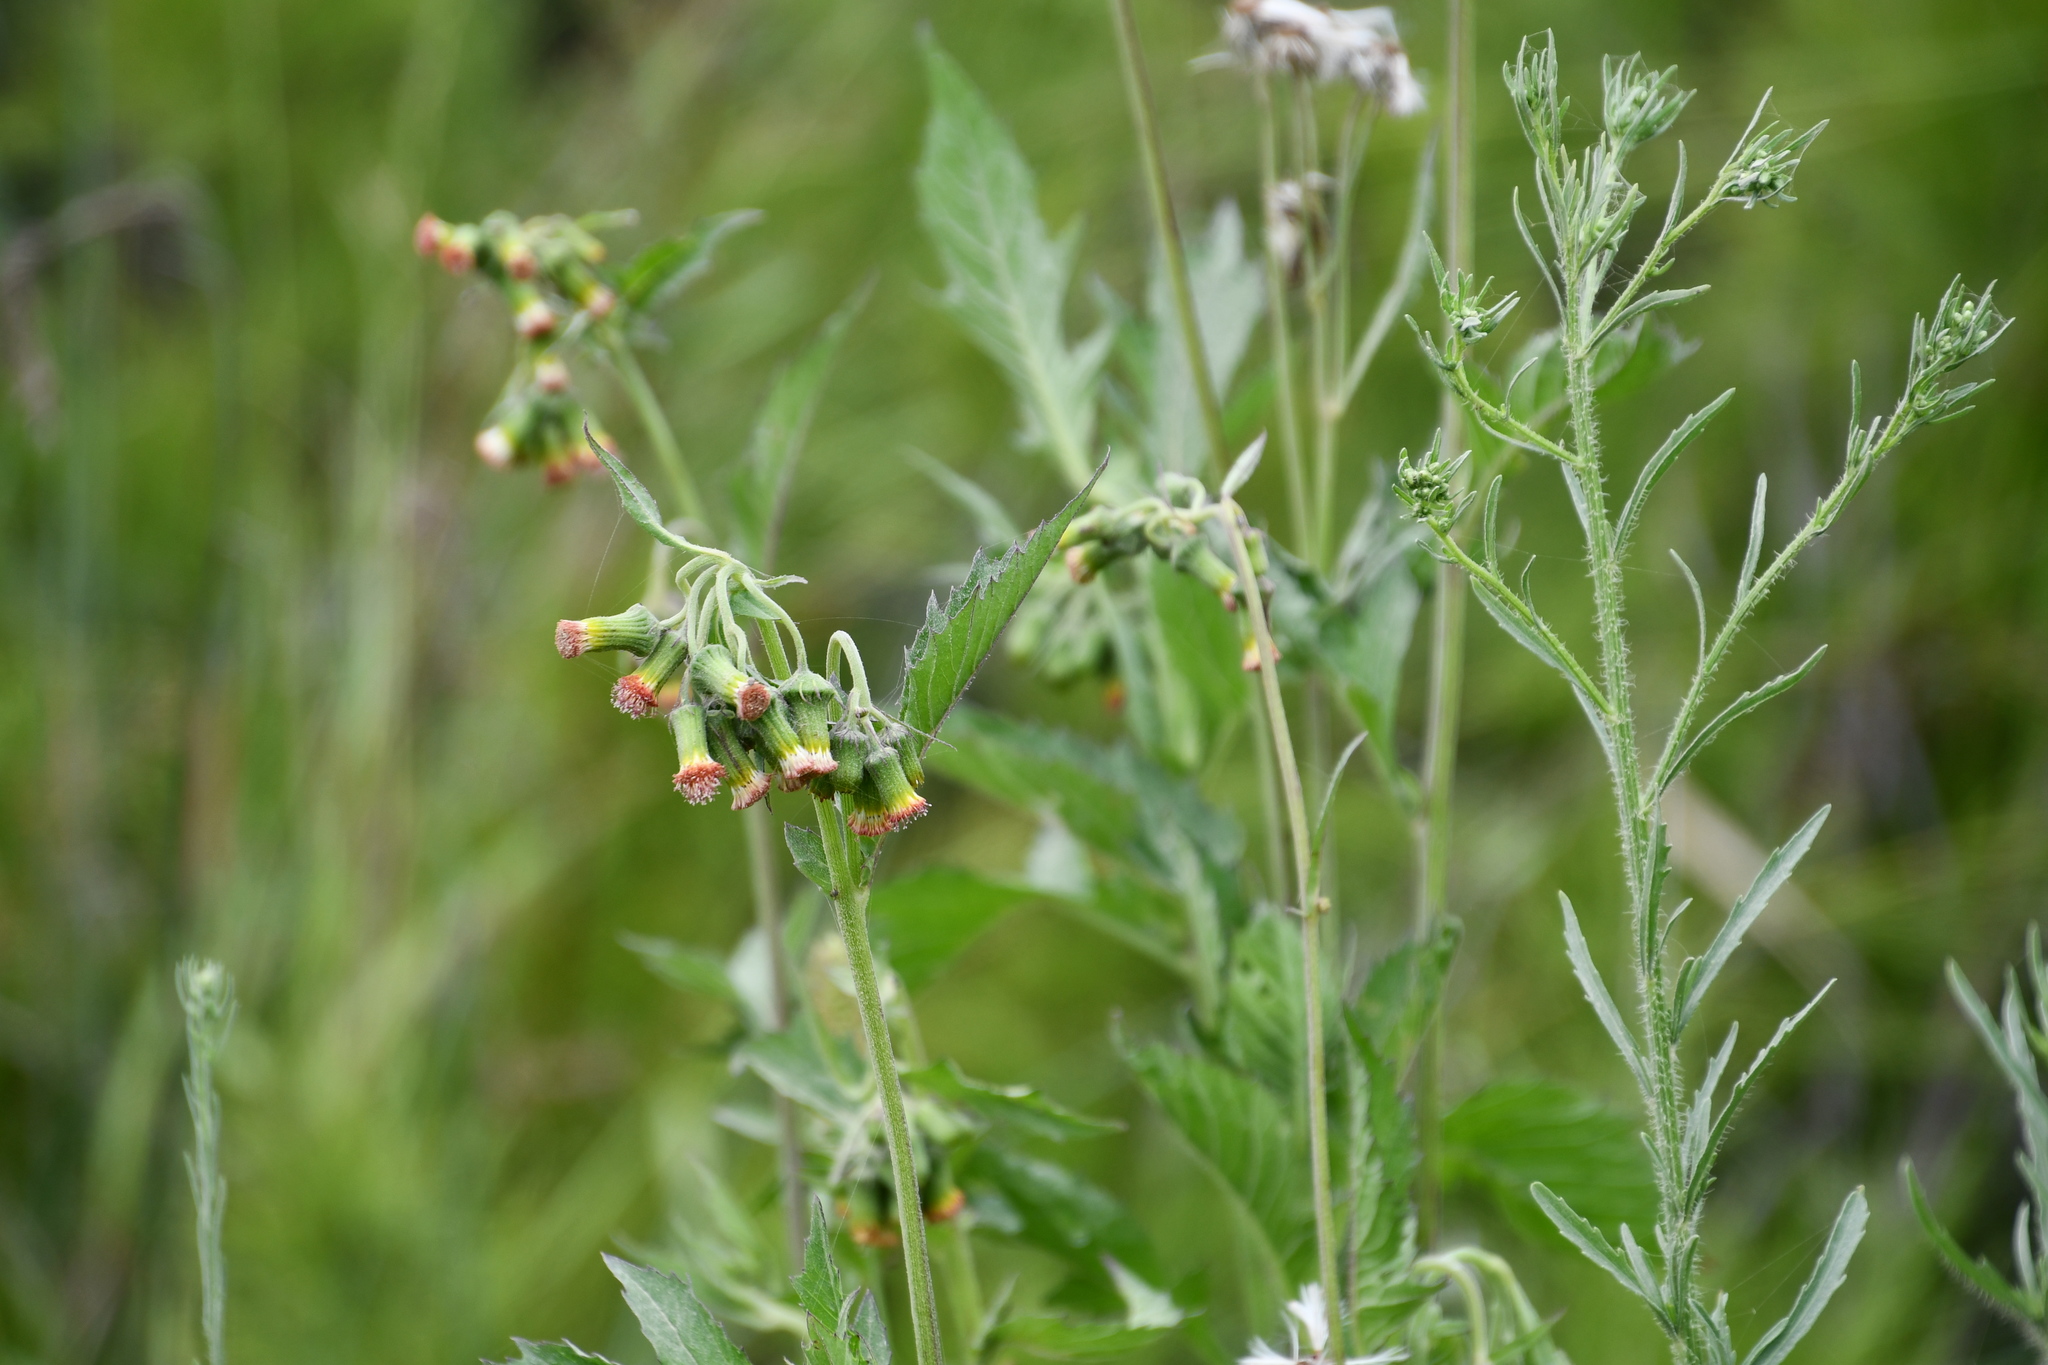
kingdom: Plantae
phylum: Tracheophyta
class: Magnoliopsida
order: Asterales
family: Asteraceae
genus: Crassocephalum
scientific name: Crassocephalum crepidioides
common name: Redflower ragleaf
